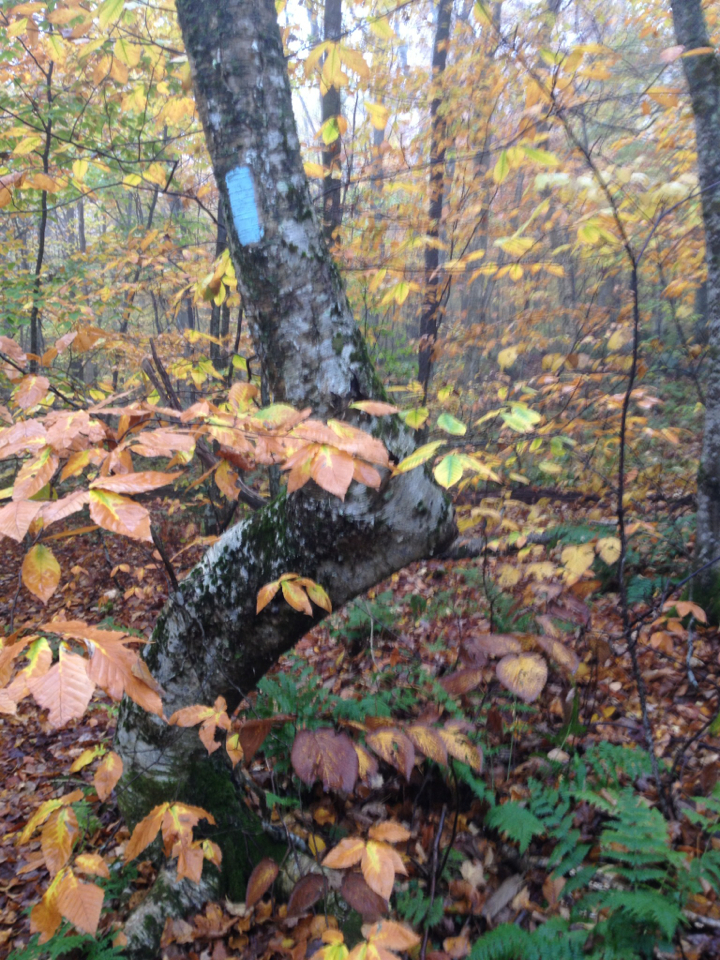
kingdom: Plantae
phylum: Tracheophyta
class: Magnoliopsida
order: Fagales
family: Fagaceae
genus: Fagus
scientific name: Fagus grandifolia
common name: American beech
